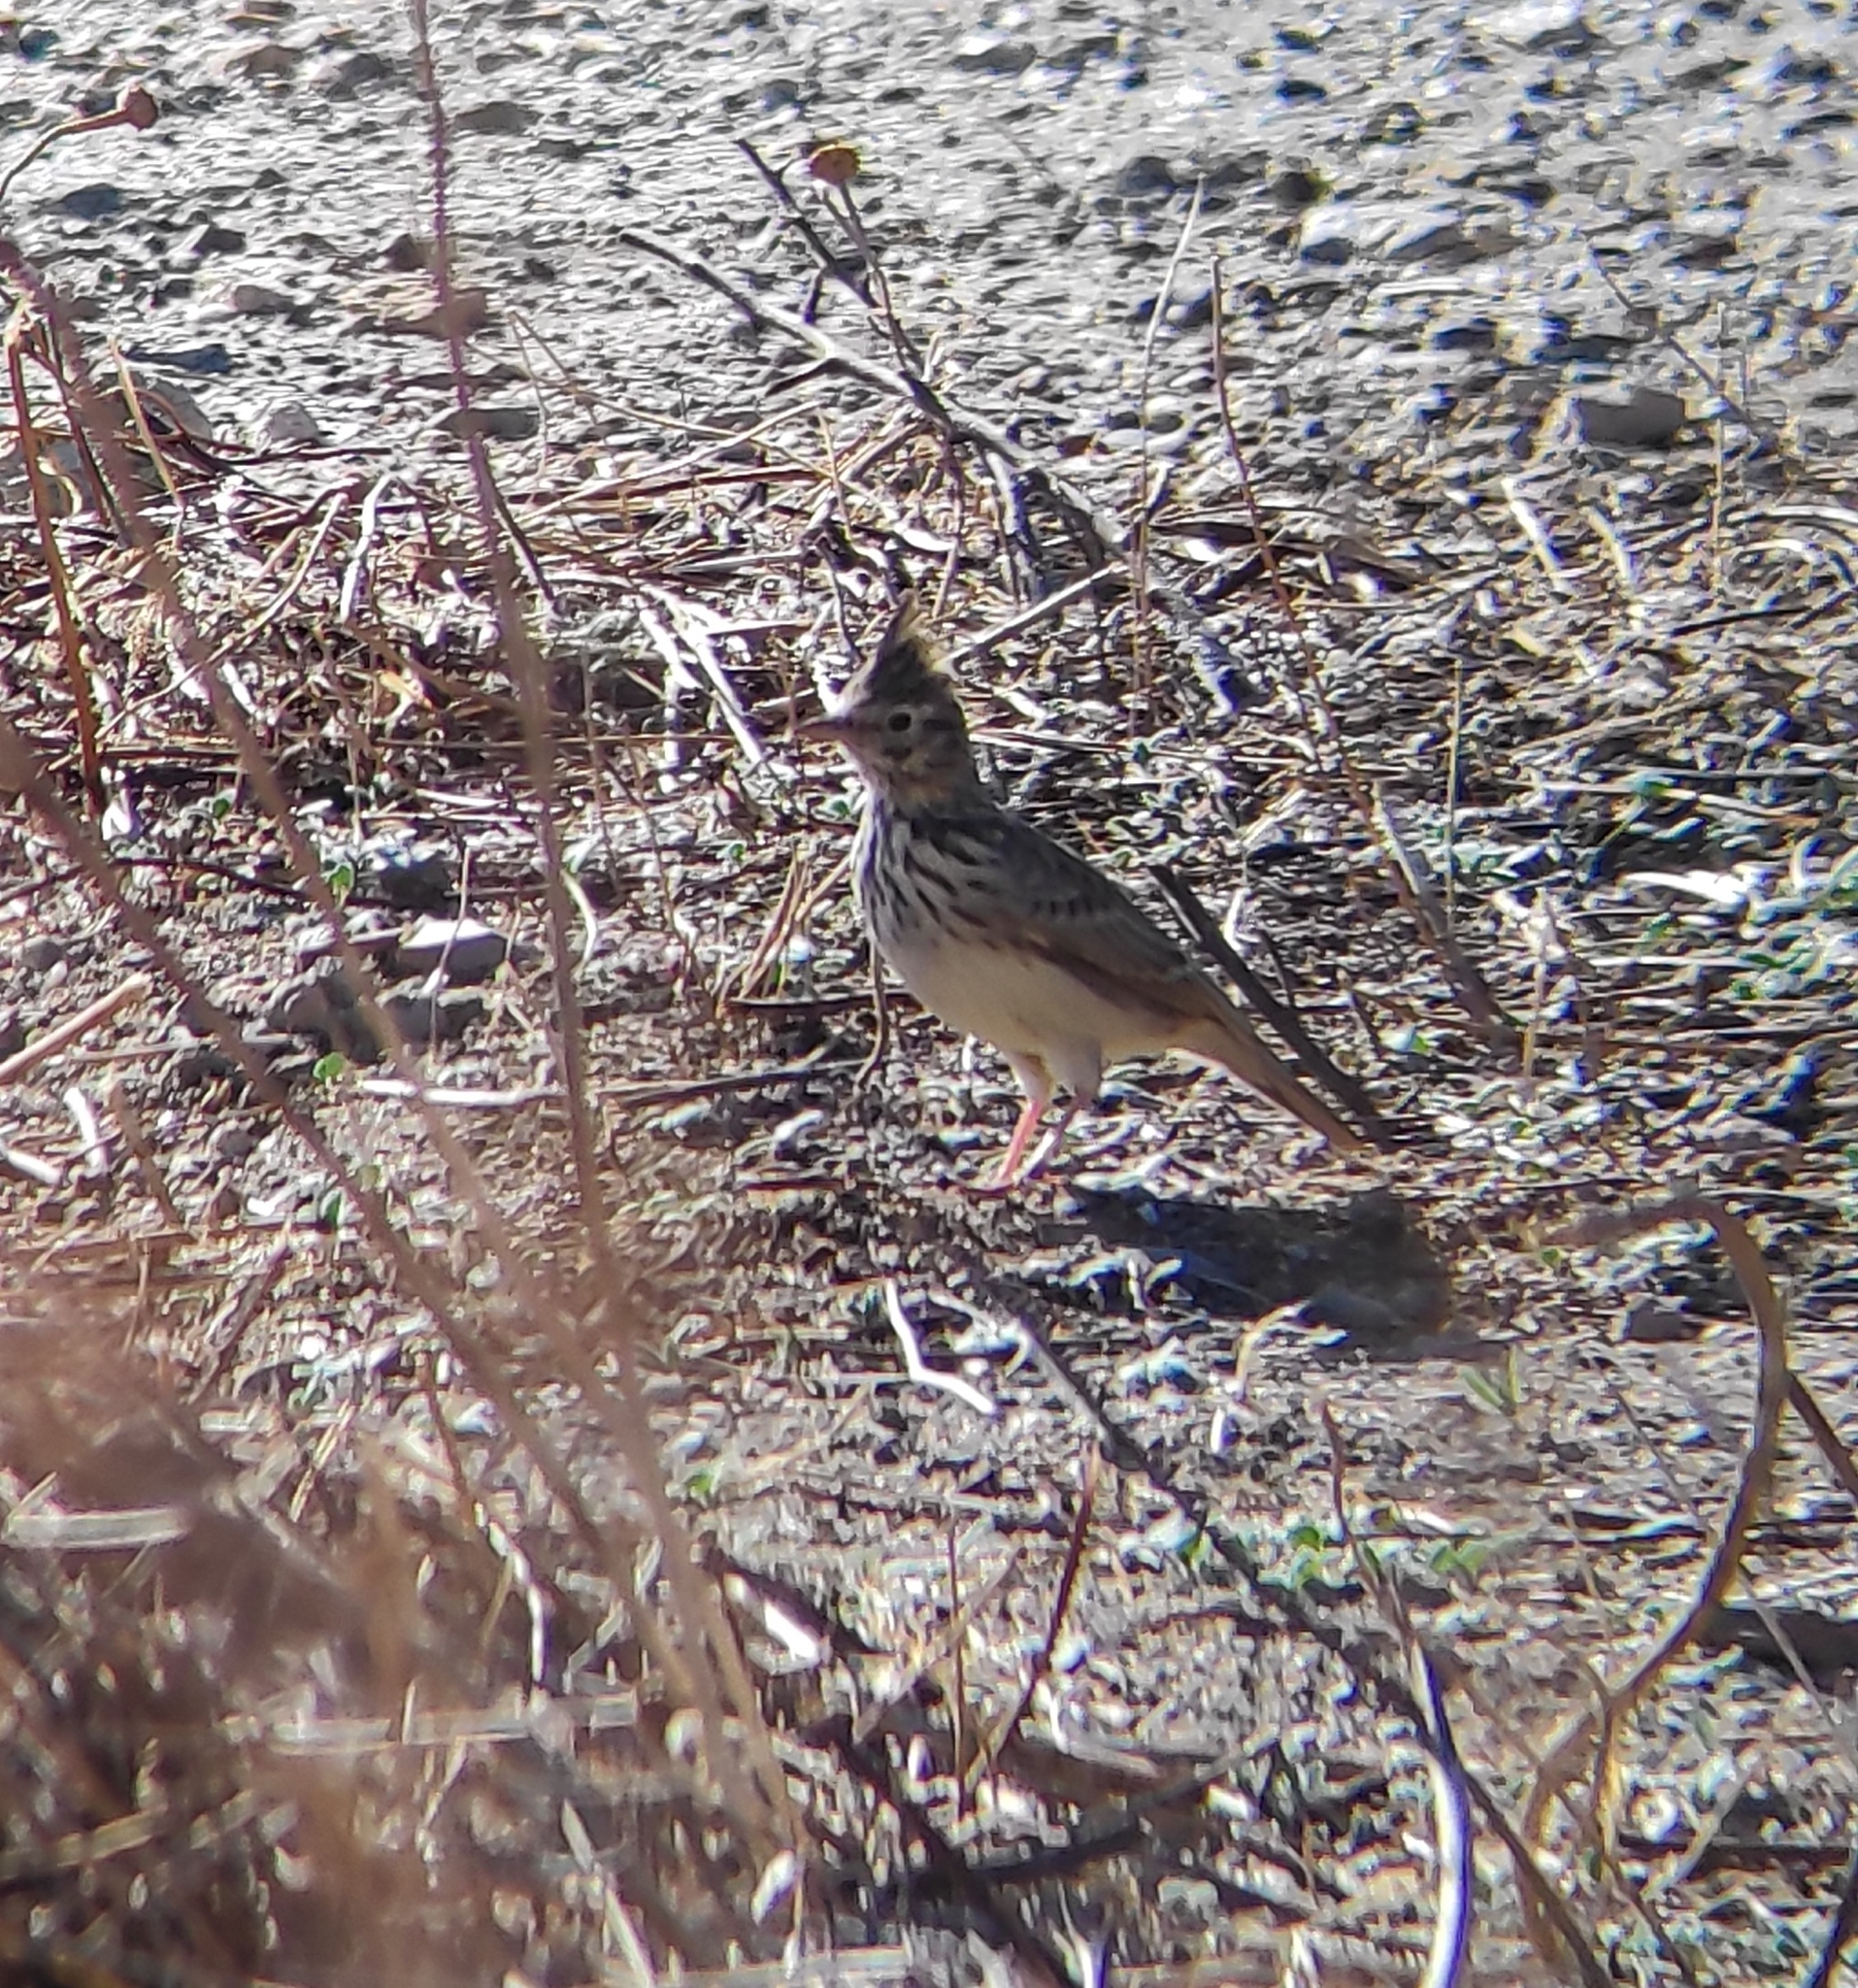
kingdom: Animalia
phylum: Chordata
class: Aves
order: Passeriformes
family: Alaudidae
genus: Galerida
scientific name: Galerida theklae
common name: Thekla lark
